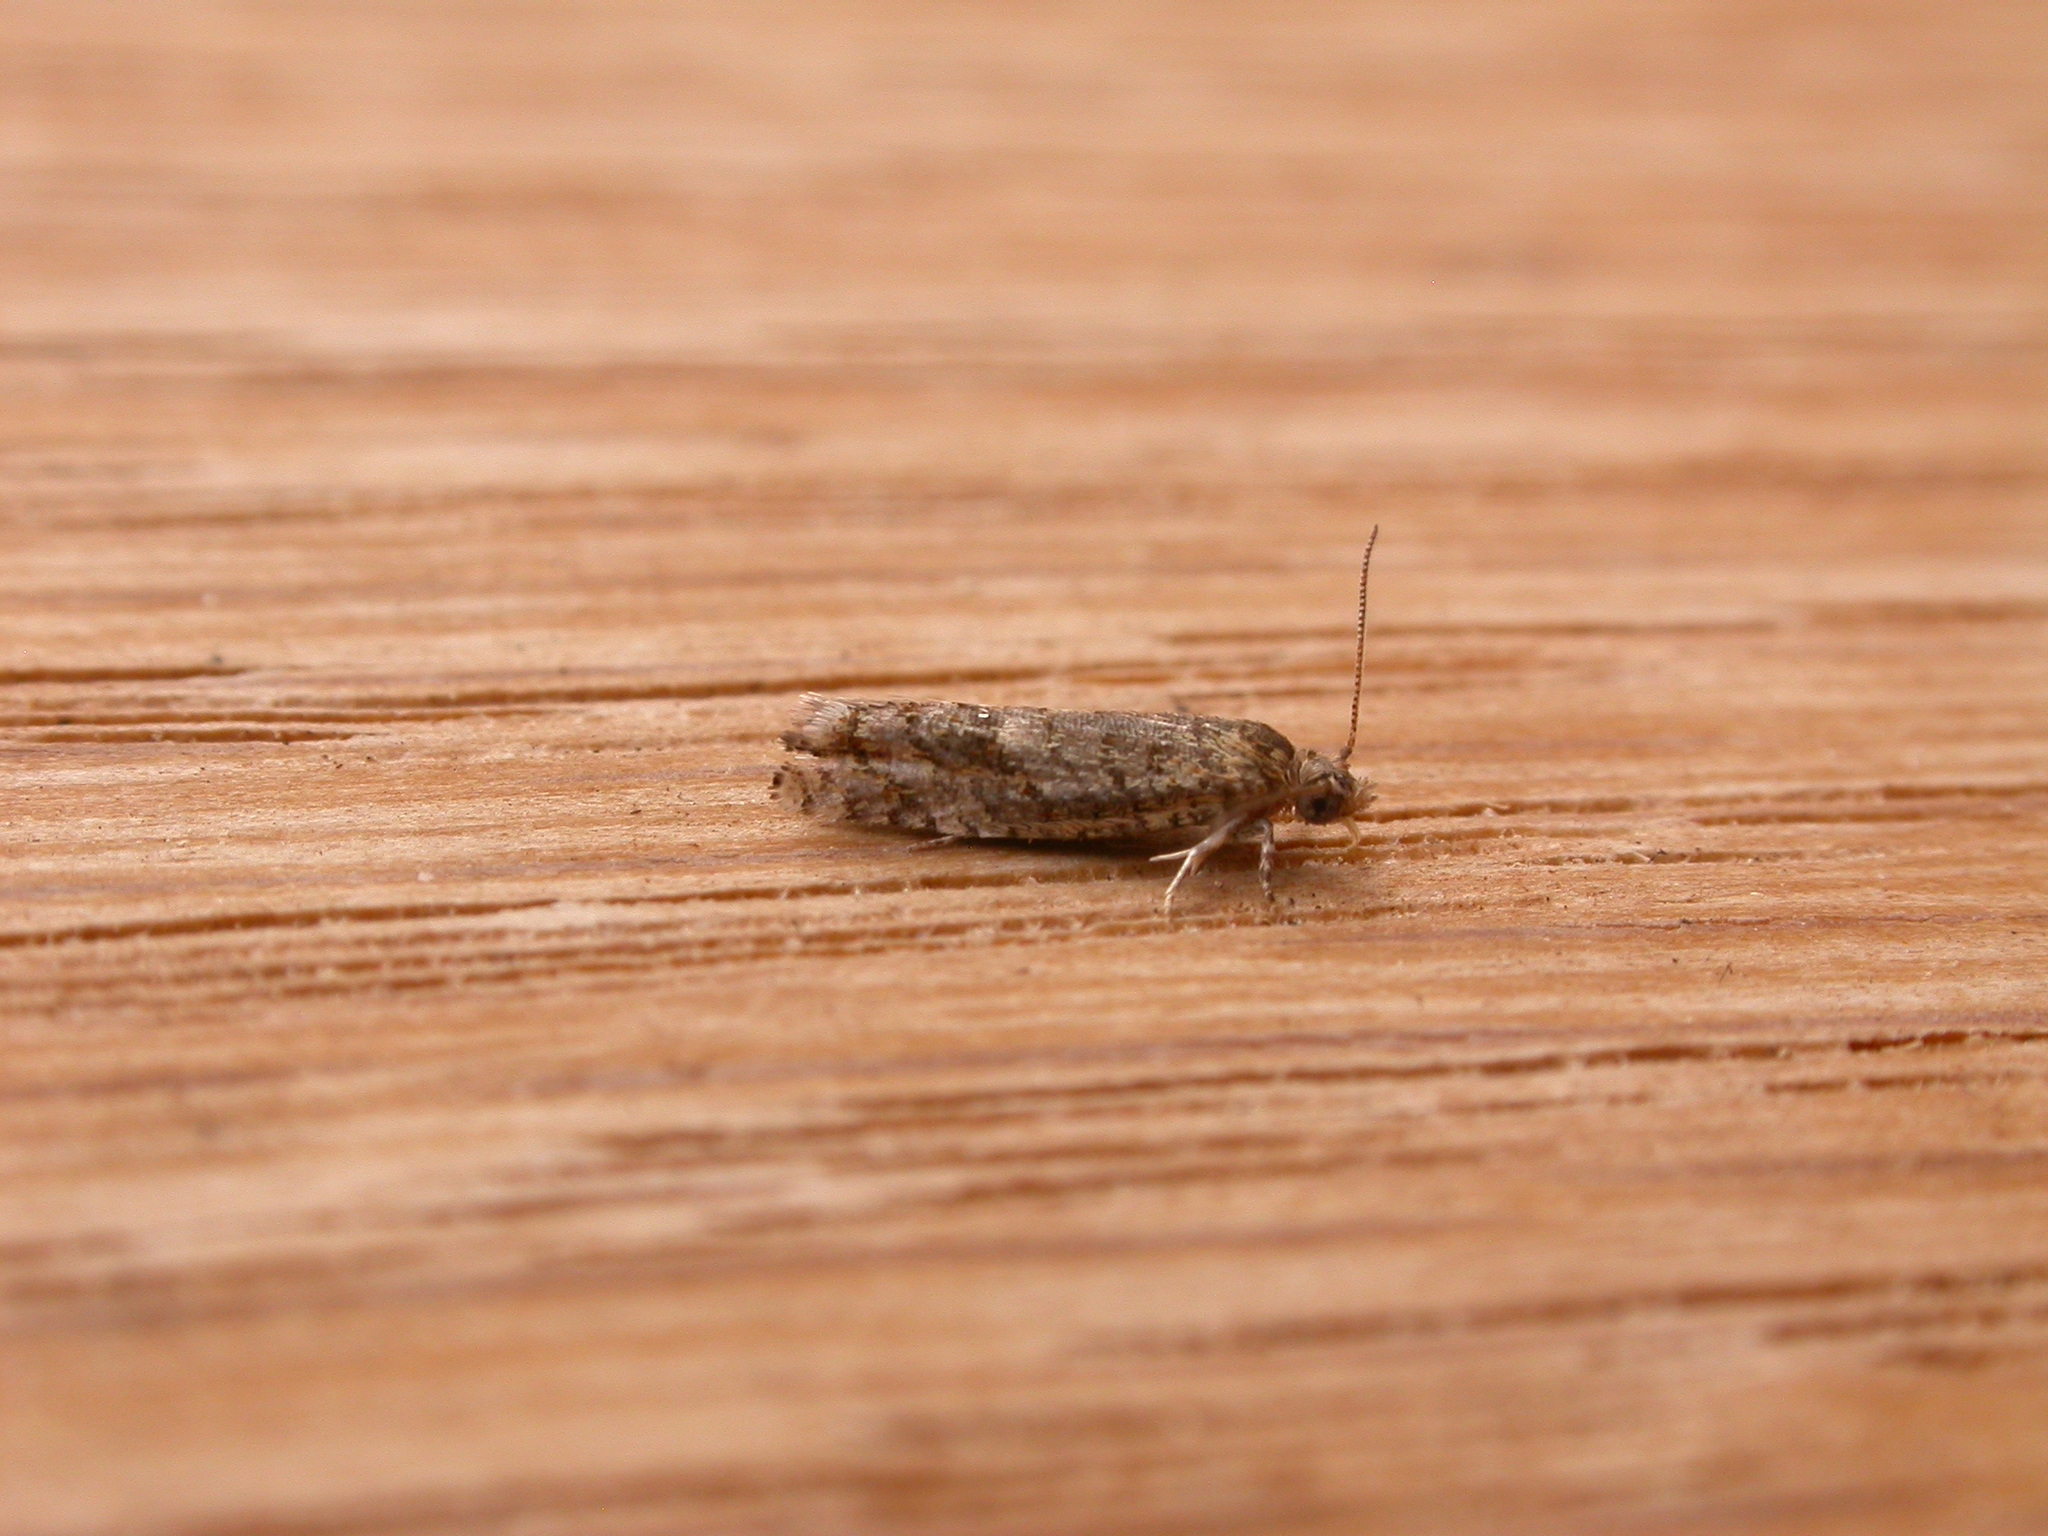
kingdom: Animalia
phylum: Arthropoda
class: Insecta
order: Lepidoptera
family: Tortricidae
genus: Holocola
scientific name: Holocola thalassinana
